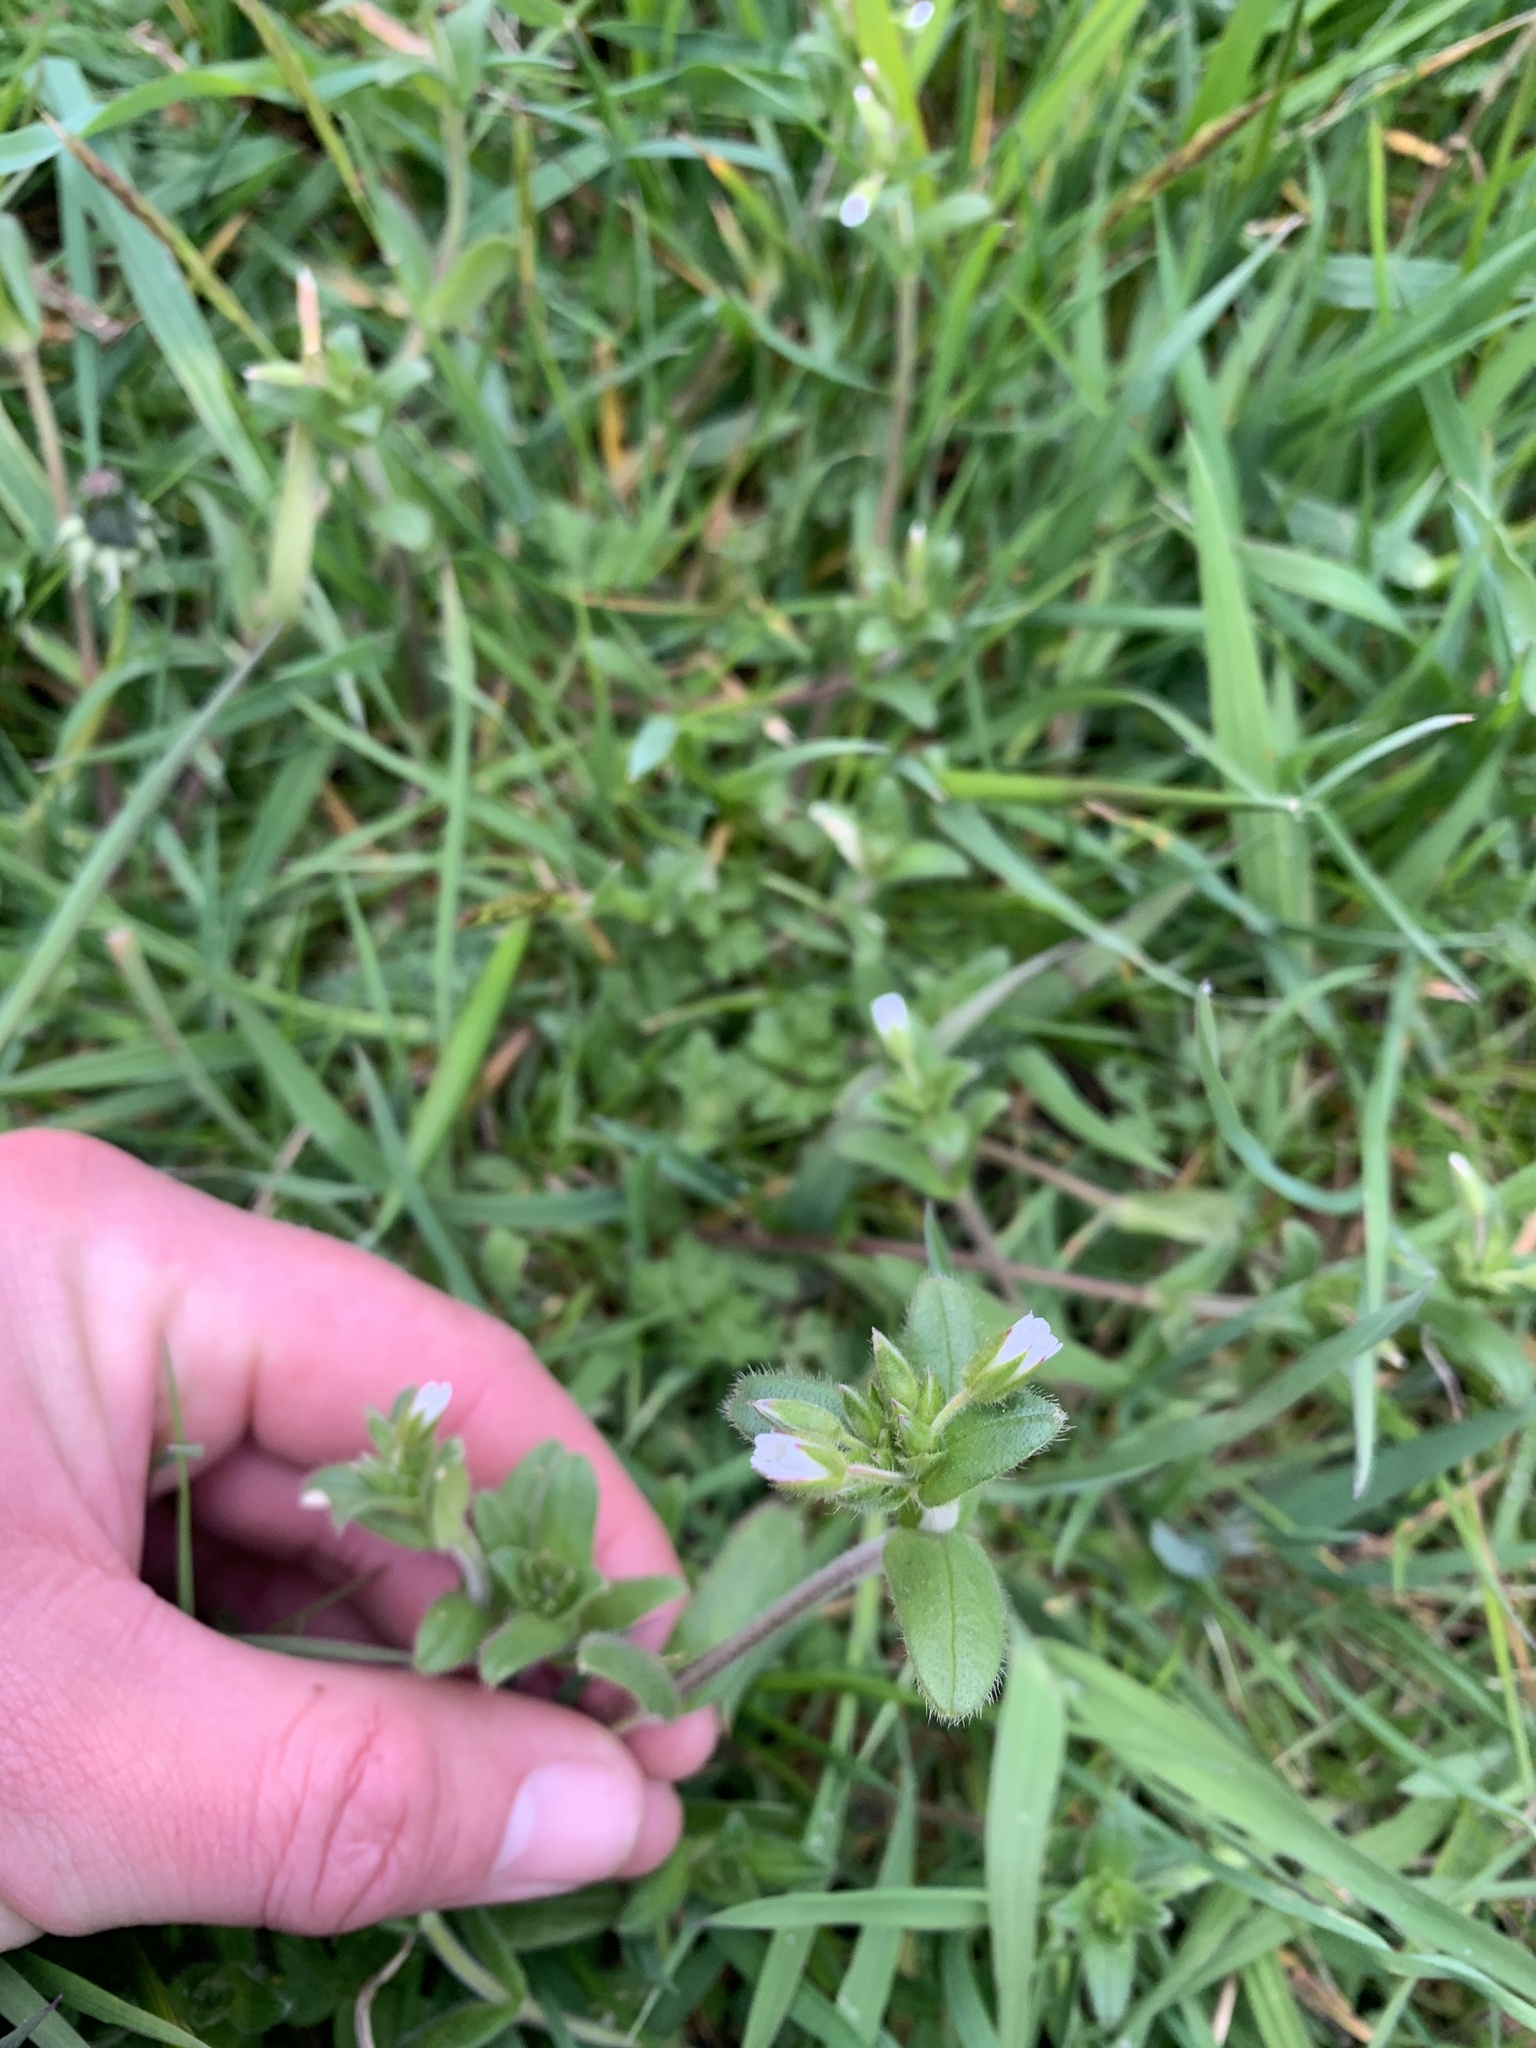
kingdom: Plantae
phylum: Tracheophyta
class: Magnoliopsida
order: Caryophyllales
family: Caryophyllaceae
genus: Cerastium
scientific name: Cerastium fontanum
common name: Common mouse-ear
